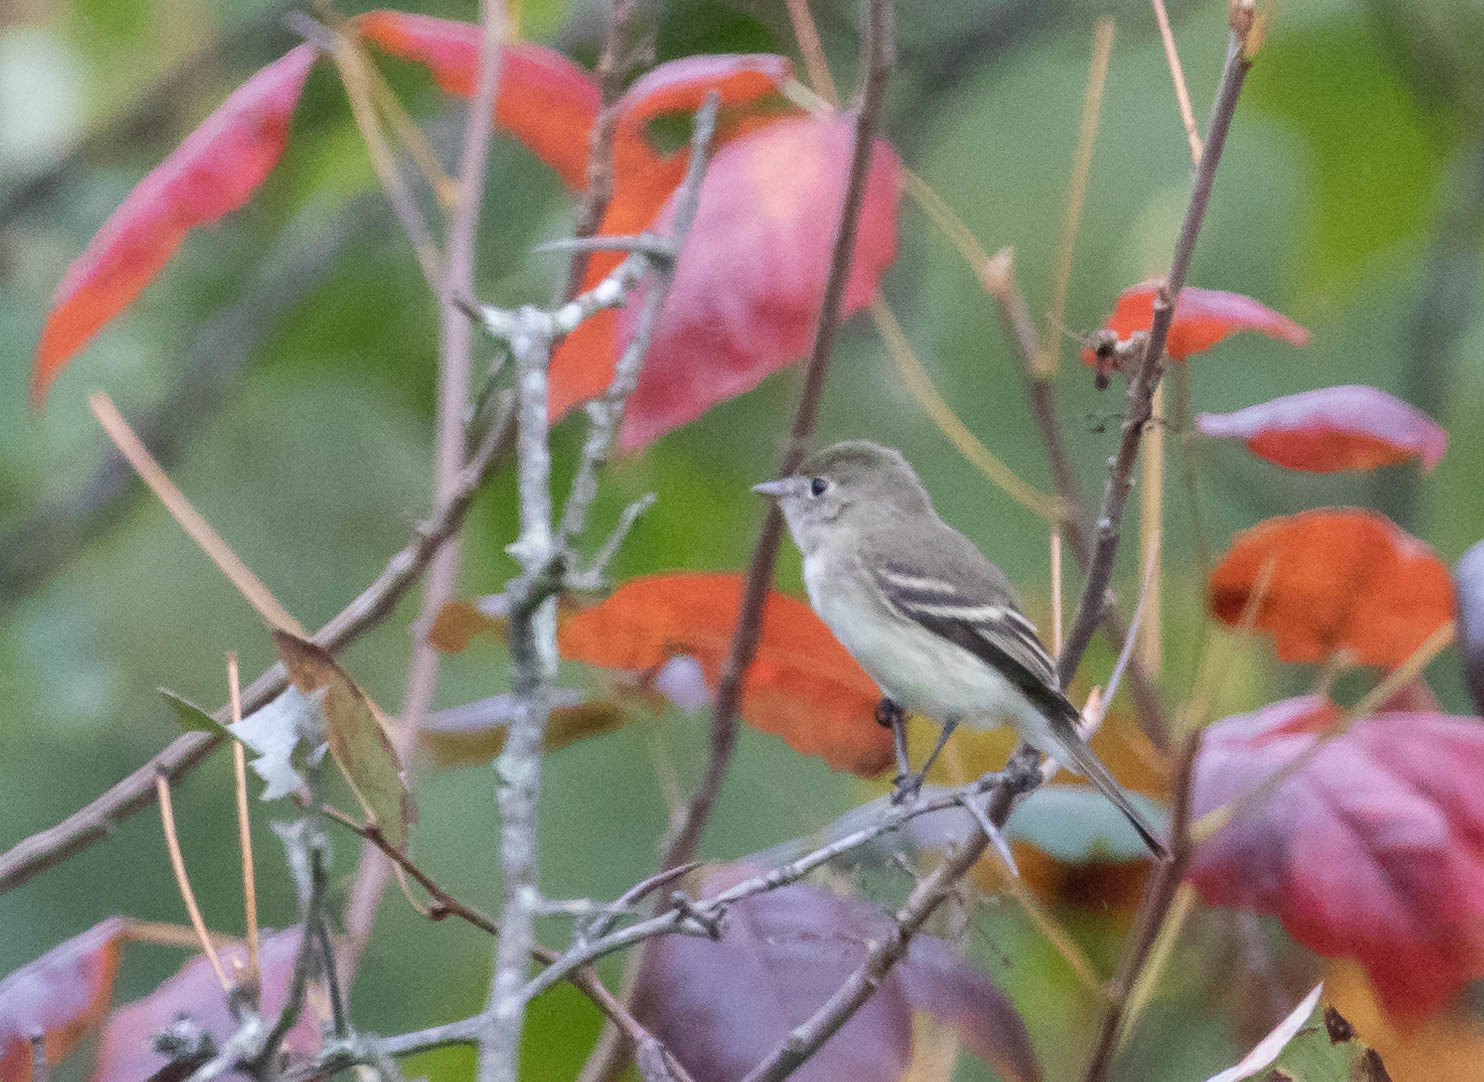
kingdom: Animalia
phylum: Chordata
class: Aves
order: Passeriformes
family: Tyrannidae
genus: Empidonax
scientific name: Empidonax minimus
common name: Least flycatcher
